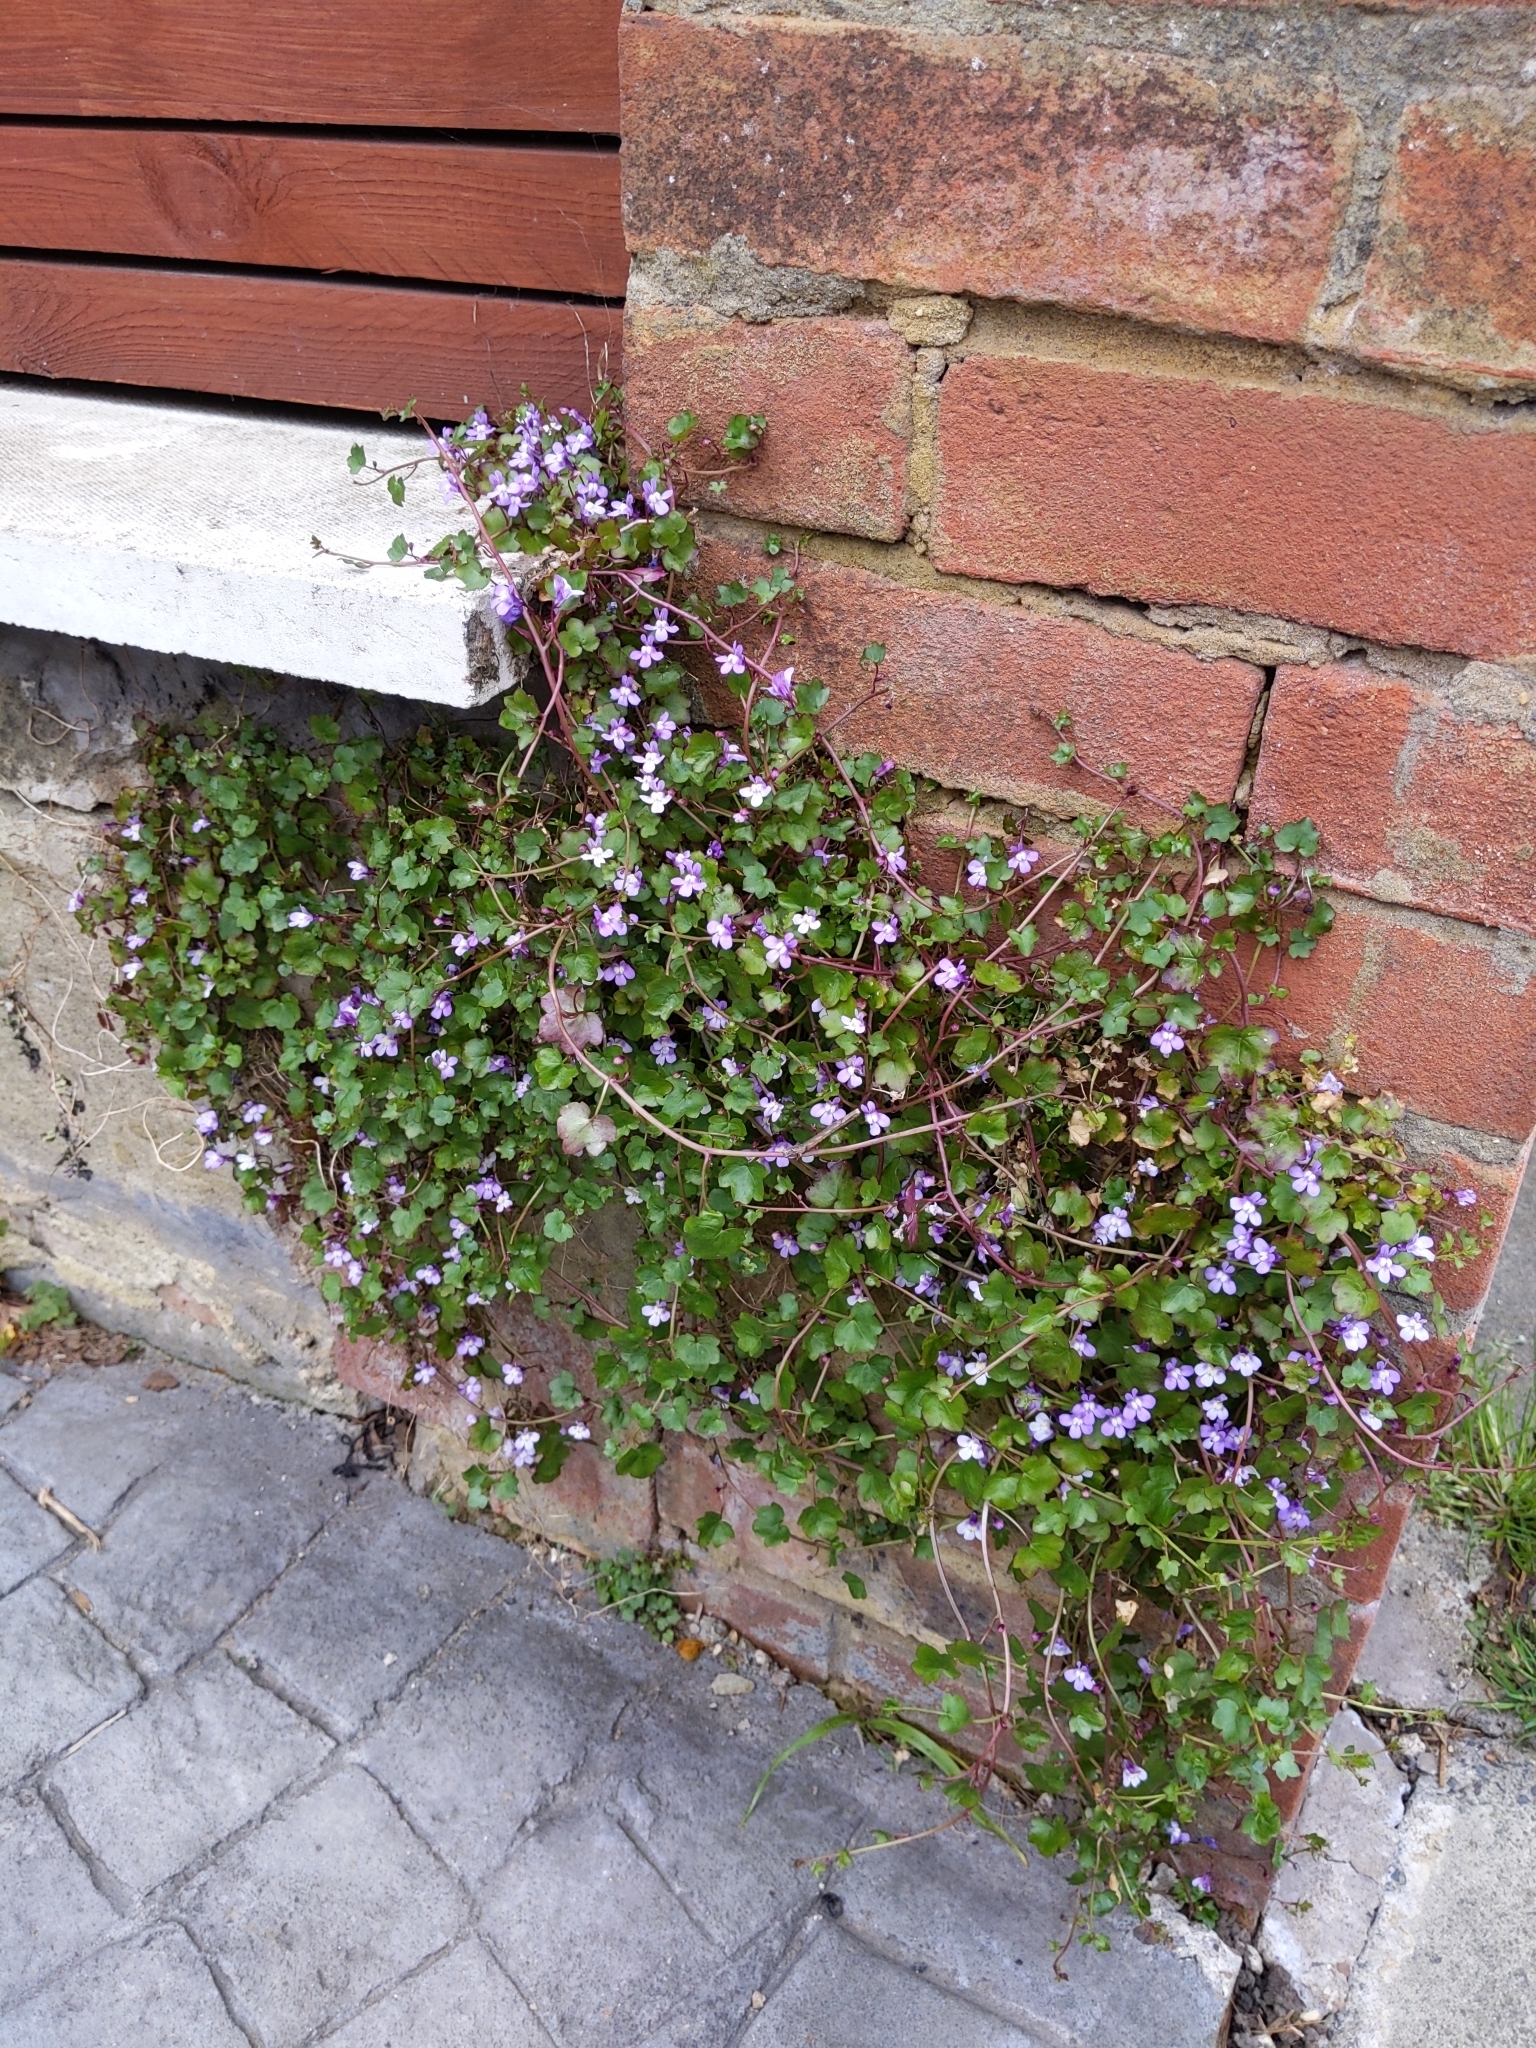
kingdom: Plantae
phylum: Tracheophyta
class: Magnoliopsida
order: Lamiales
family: Plantaginaceae
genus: Cymbalaria
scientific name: Cymbalaria muralis
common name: Ivy-leaved toadflax
